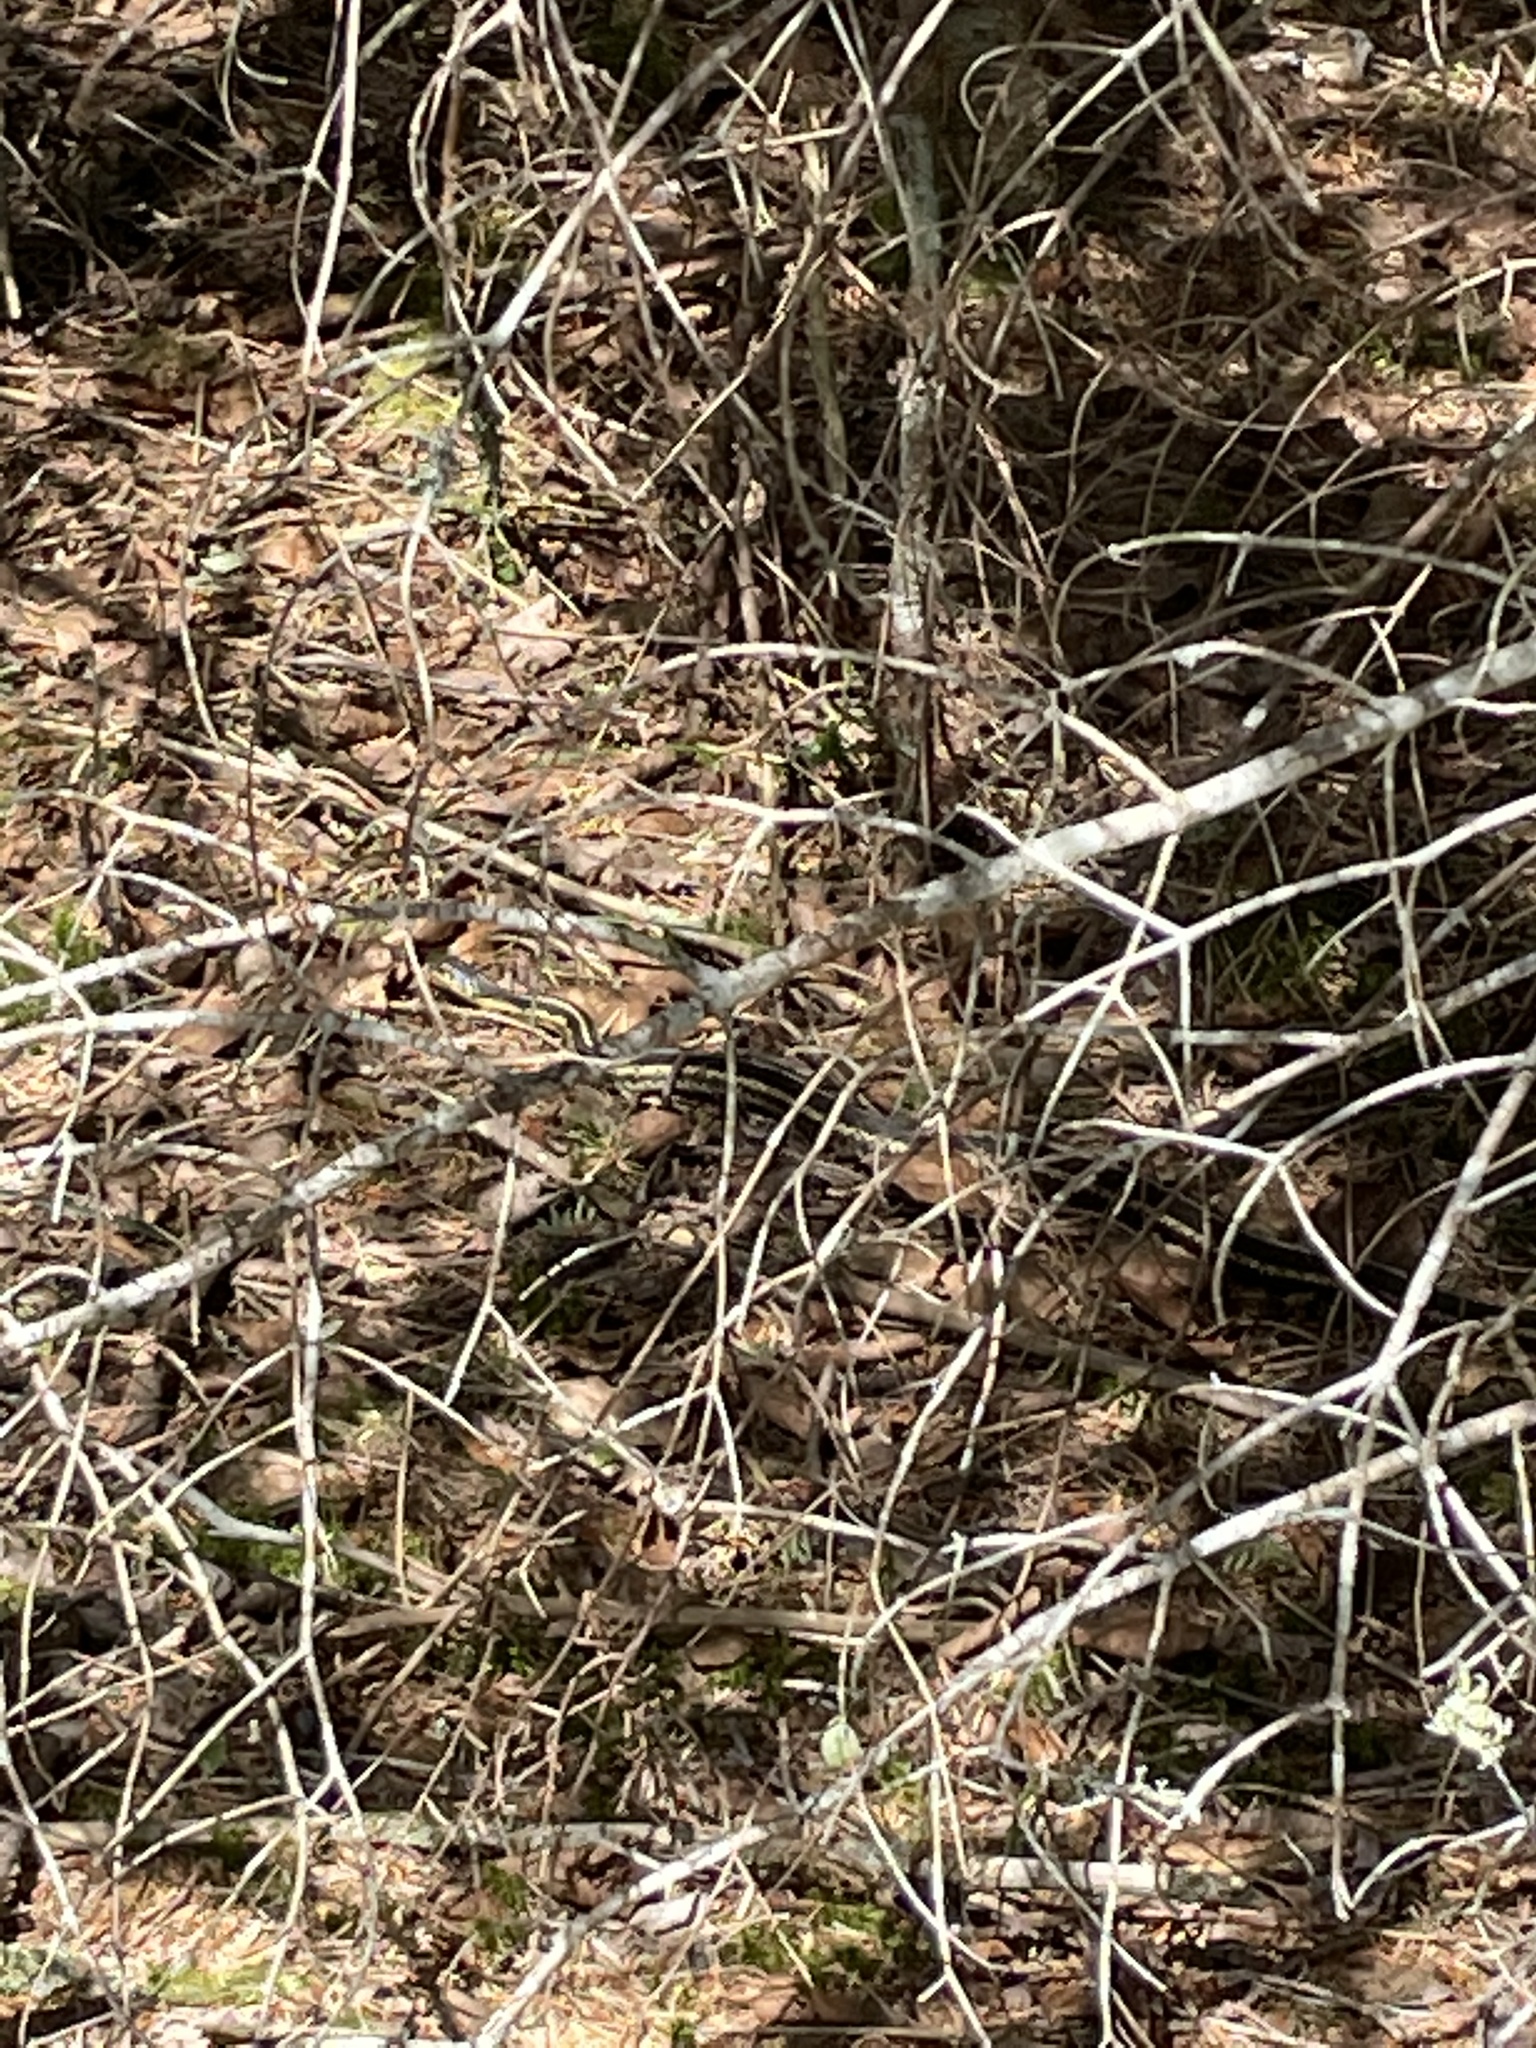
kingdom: Animalia
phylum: Chordata
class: Squamata
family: Colubridae
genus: Thamnophis
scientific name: Thamnophis sirtalis
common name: Common garter snake
